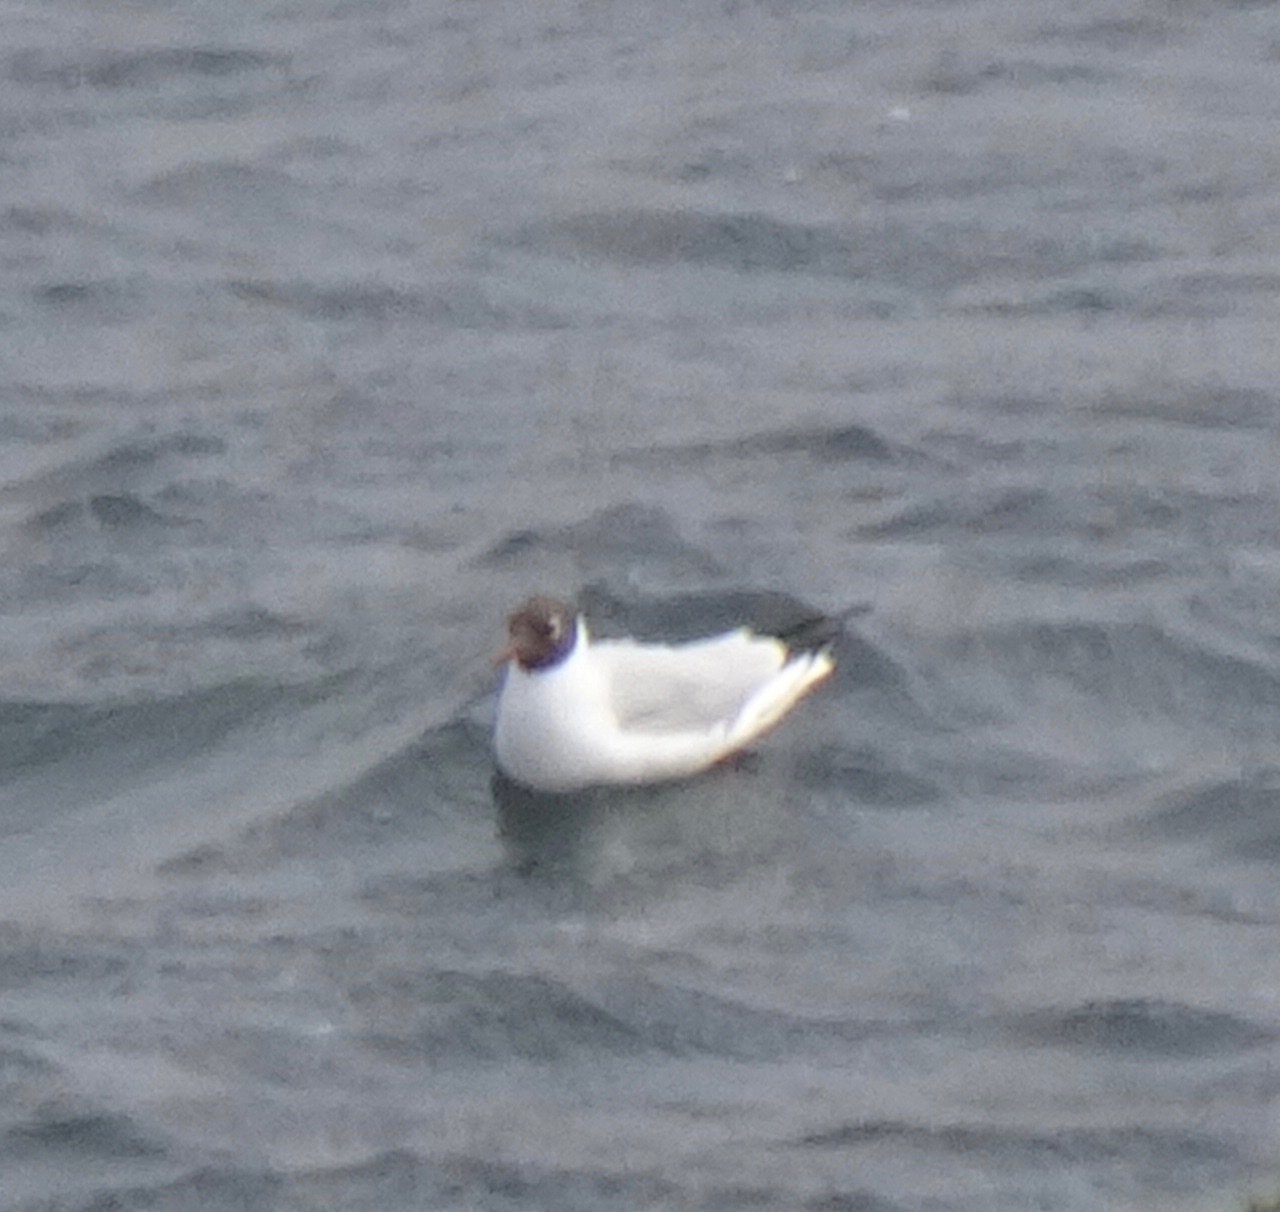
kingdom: Animalia
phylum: Chordata
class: Aves
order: Charadriiformes
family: Laridae
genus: Chroicocephalus
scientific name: Chroicocephalus ridibundus
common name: Black-headed gull
